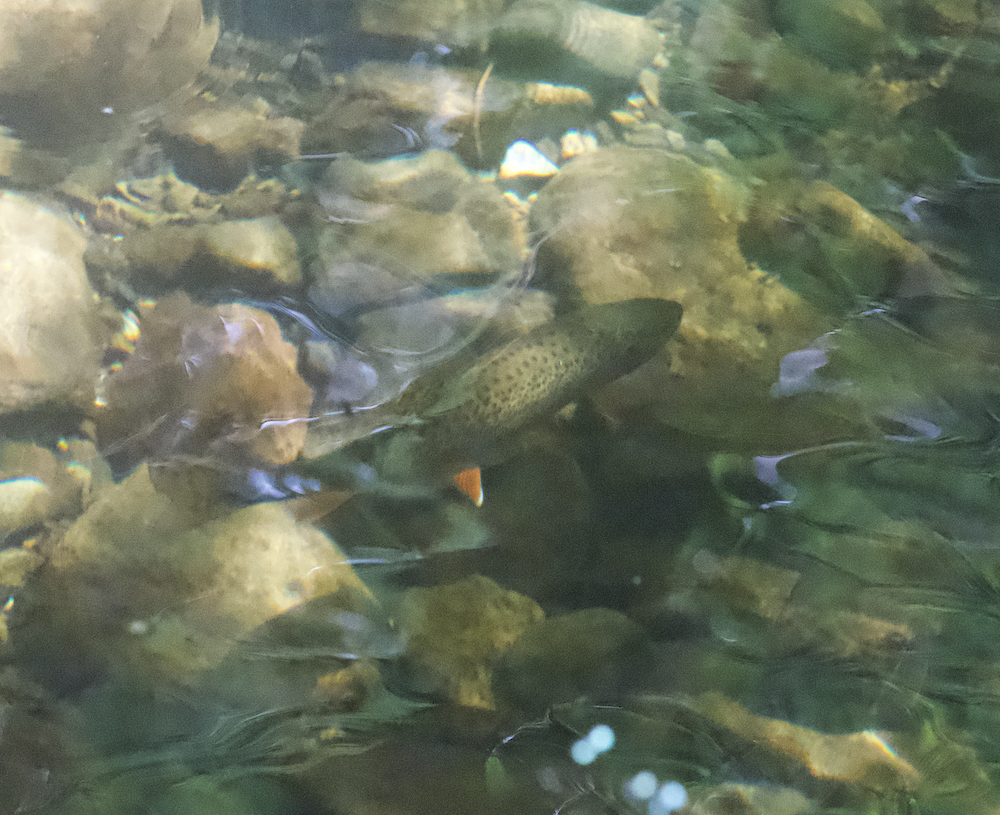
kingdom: Animalia
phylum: Chordata
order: Salmoniformes
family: Salmonidae
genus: Oncorhynchus
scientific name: Oncorhynchus clarkii
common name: Cutthroat trout
